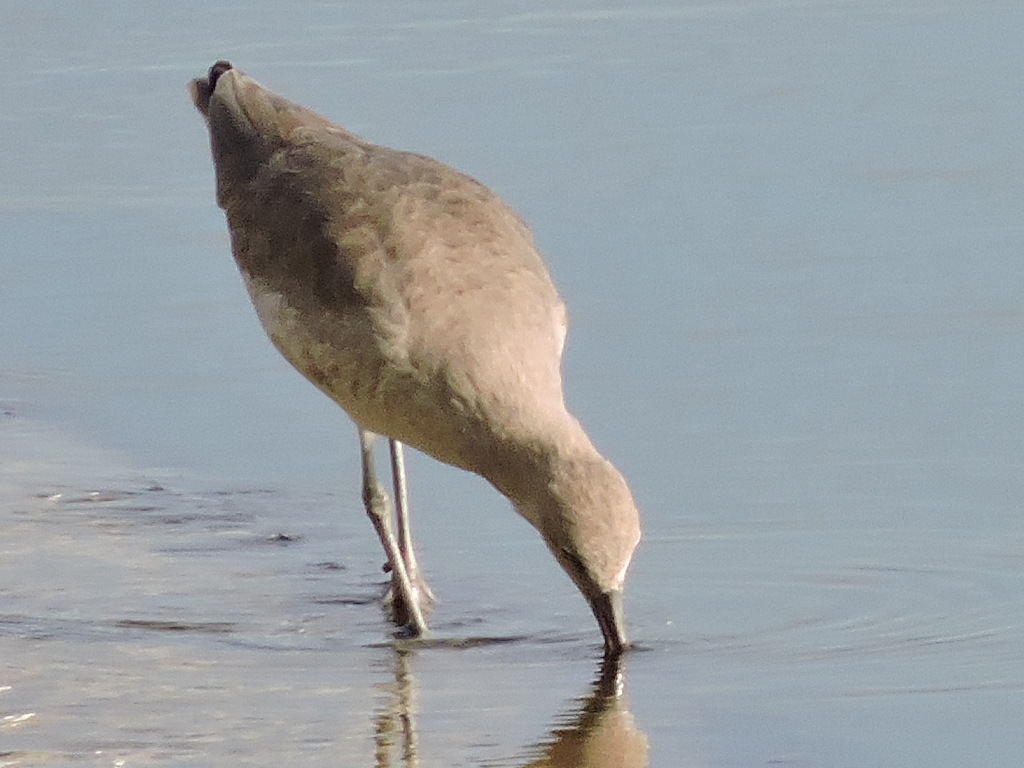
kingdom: Animalia
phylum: Chordata
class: Aves
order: Charadriiformes
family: Scolopacidae
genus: Tringa
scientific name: Tringa semipalmata
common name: Willet
